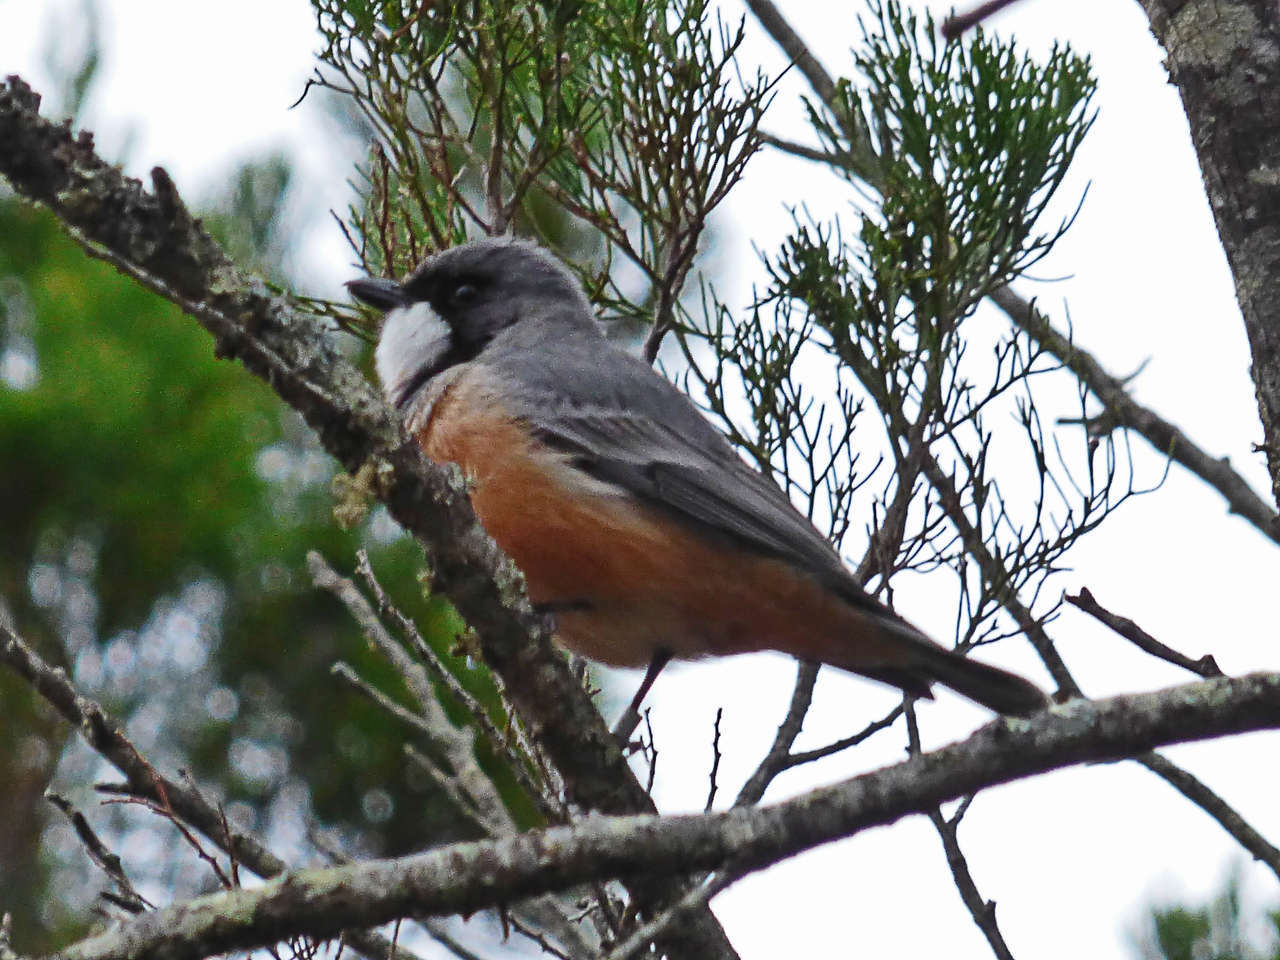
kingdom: Animalia
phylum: Chordata
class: Aves
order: Passeriformes
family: Pachycephalidae
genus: Pachycephala
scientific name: Pachycephala rufiventris
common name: Rufous whistler
